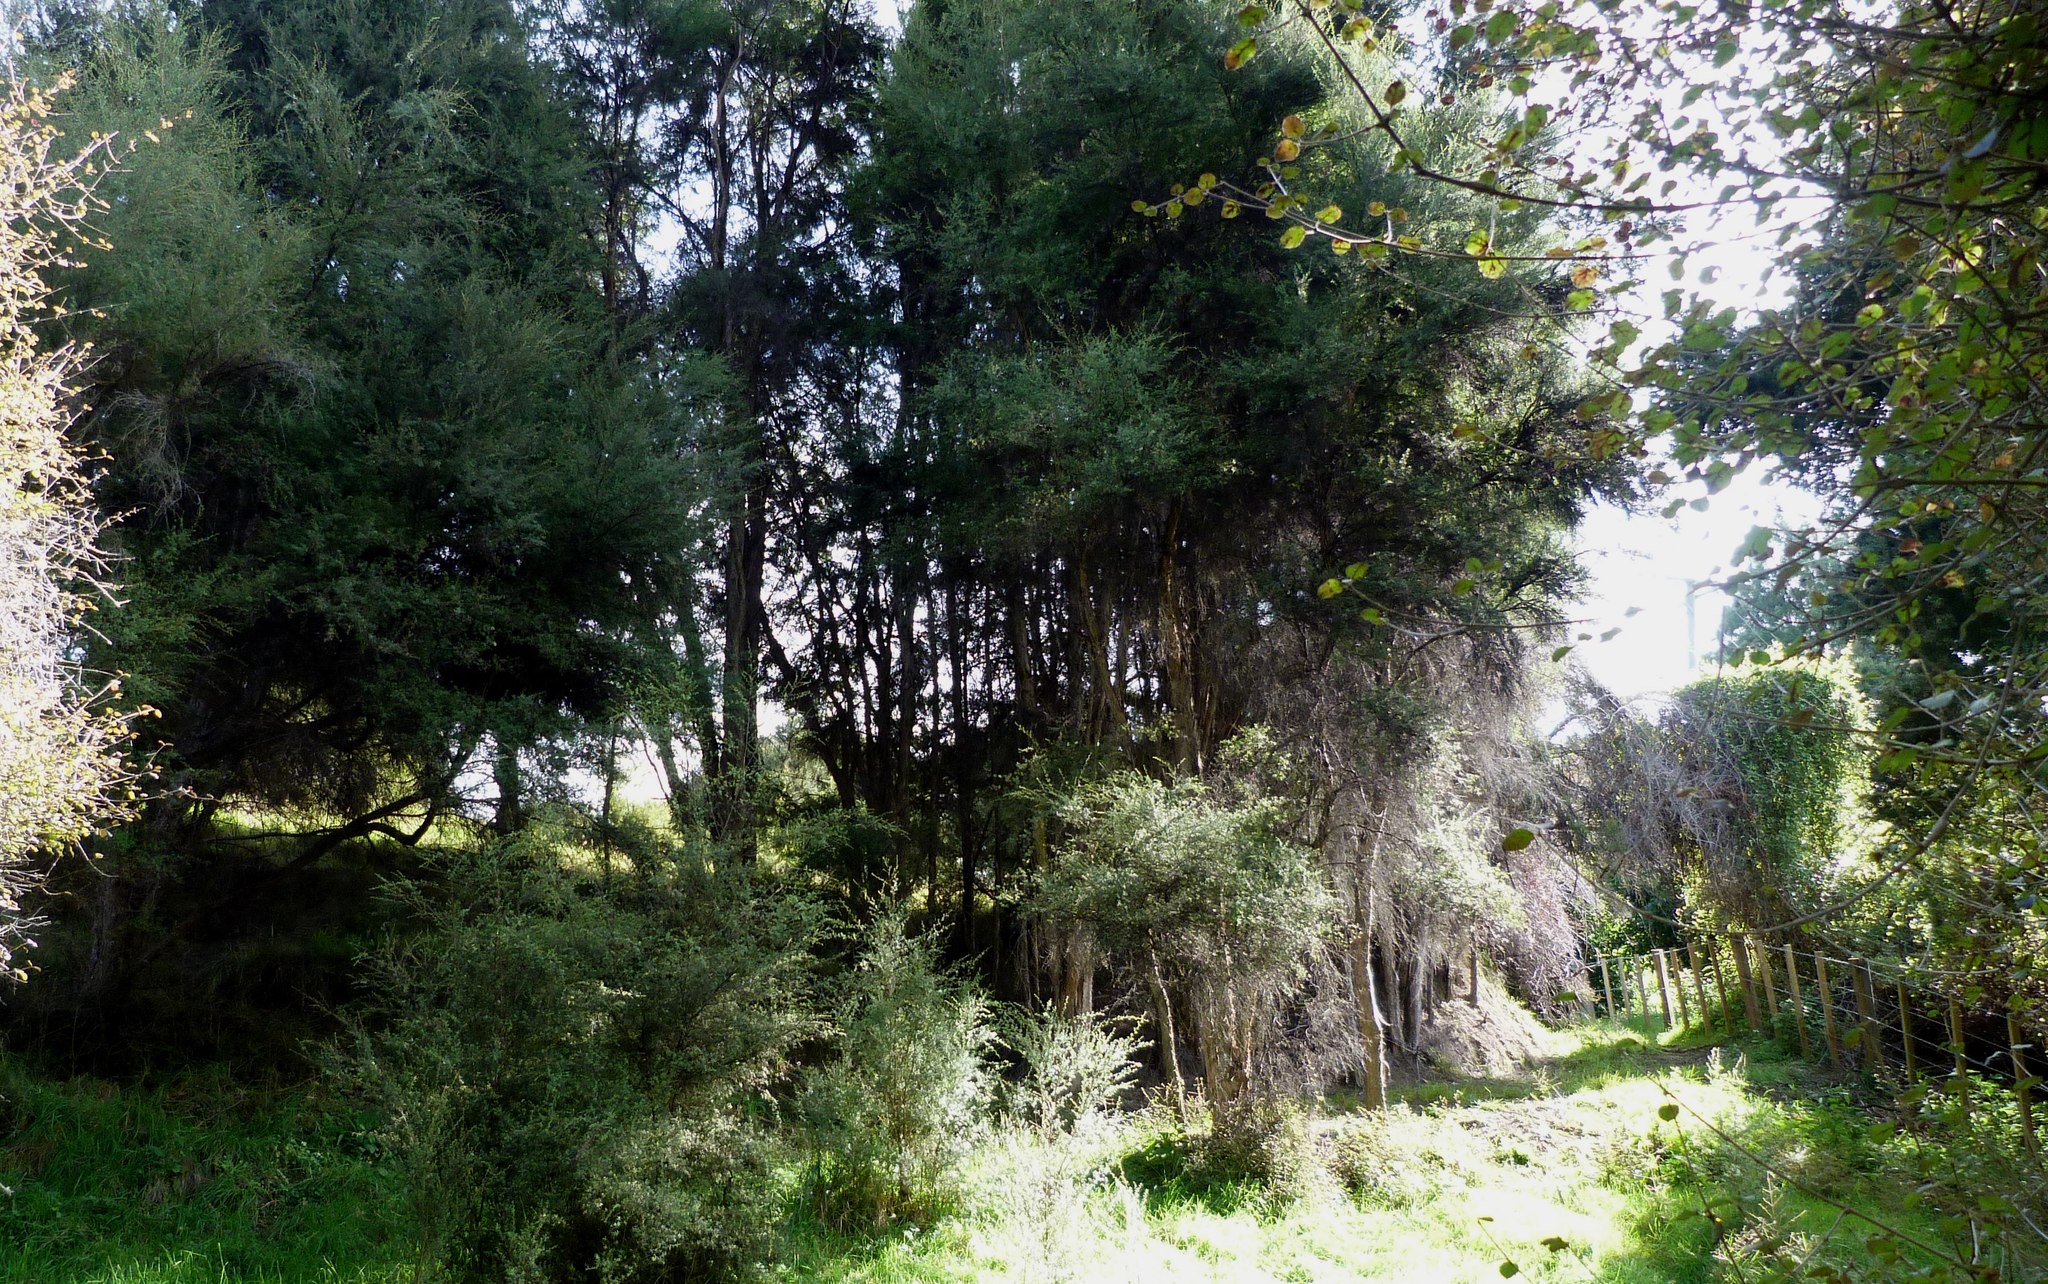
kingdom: Plantae
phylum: Tracheophyta
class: Magnoliopsida
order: Myrtales
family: Myrtaceae
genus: Kunzea
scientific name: Kunzea robusta
